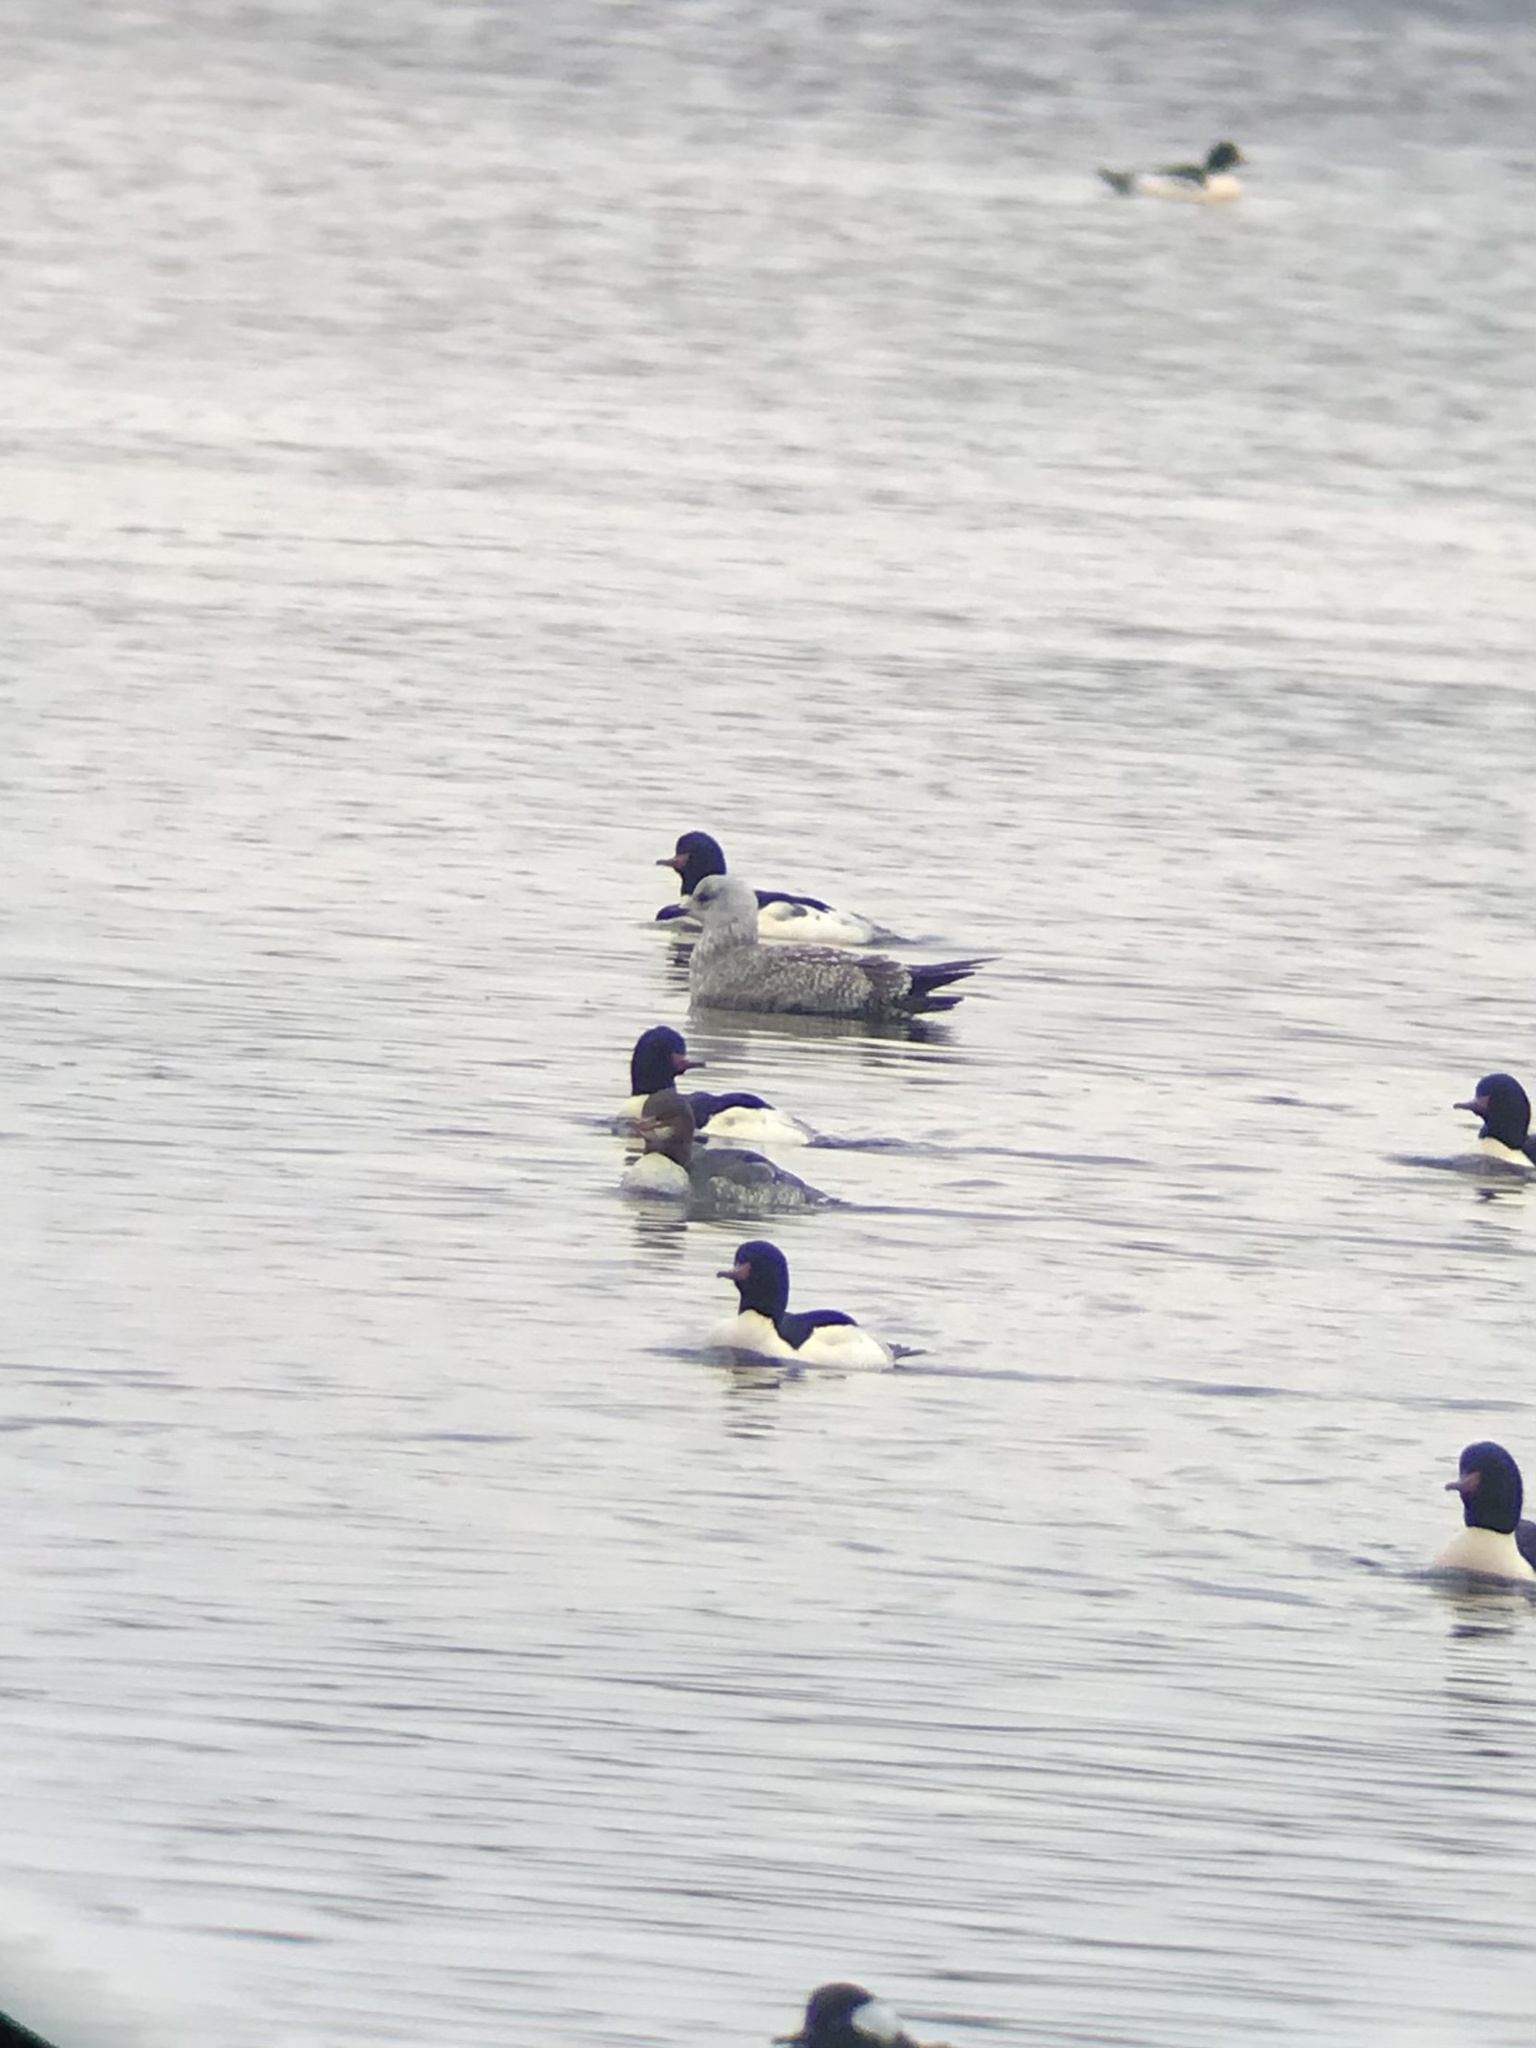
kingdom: Animalia
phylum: Chordata
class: Aves
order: Charadriiformes
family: Laridae
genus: Larus
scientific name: Larus argentatus
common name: Herring gull
